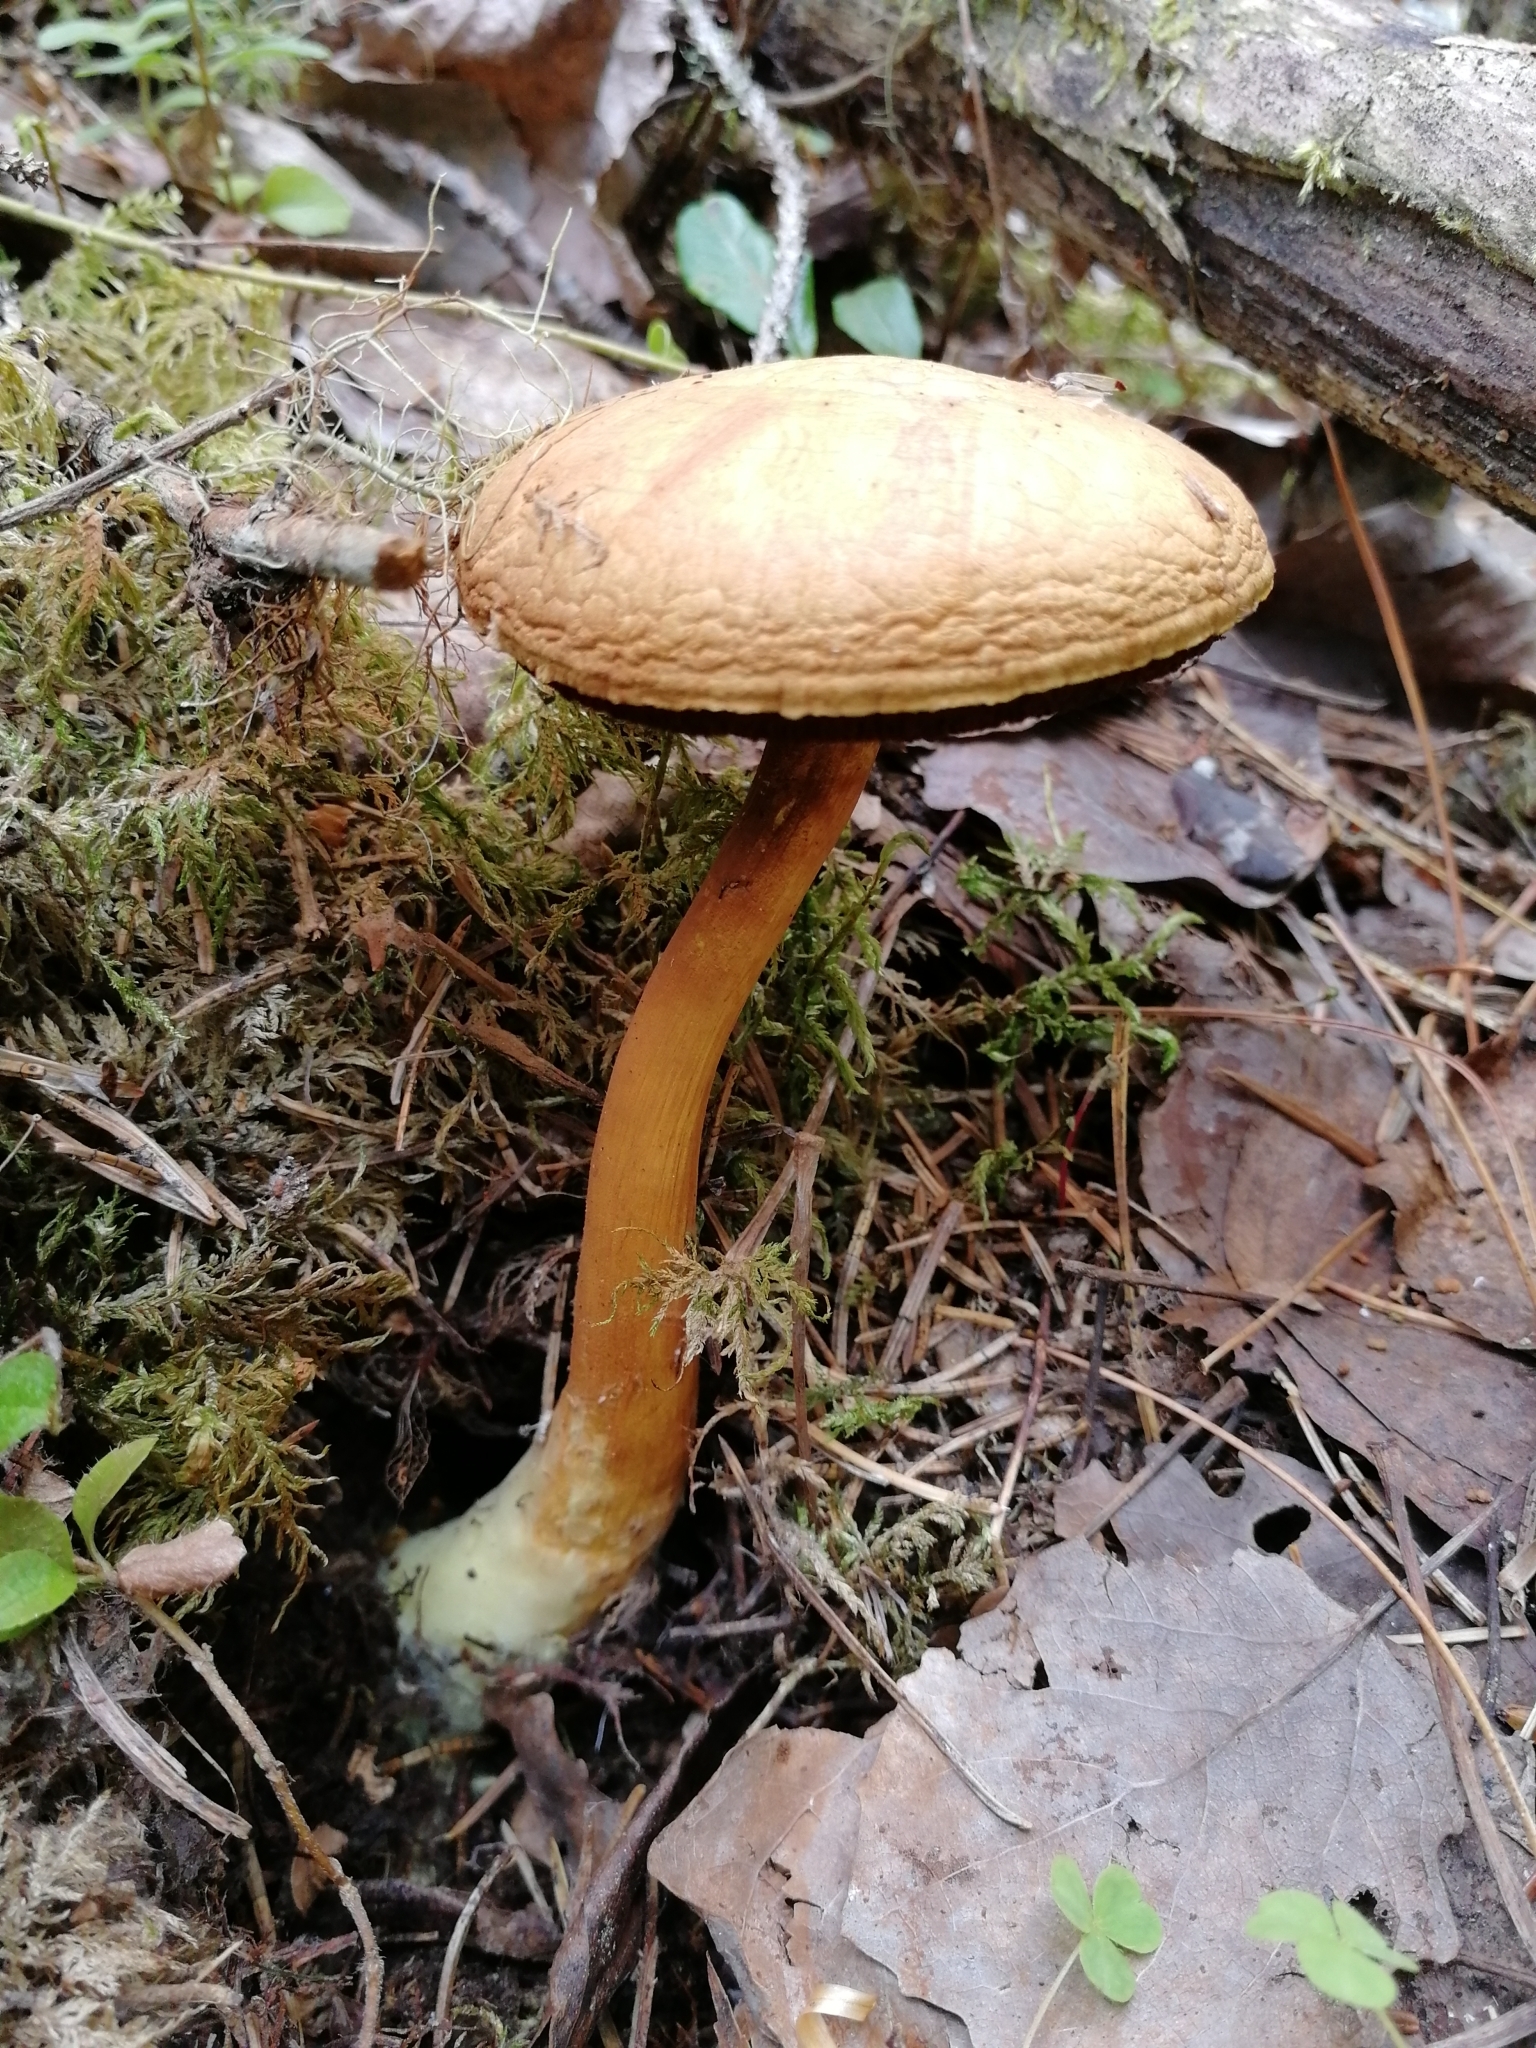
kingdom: Fungi
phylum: Basidiomycota
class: Agaricomycetes
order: Boletales
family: Boletaceae
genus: Chalciporus
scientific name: Chalciporus piperatus
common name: Peppery bolete
